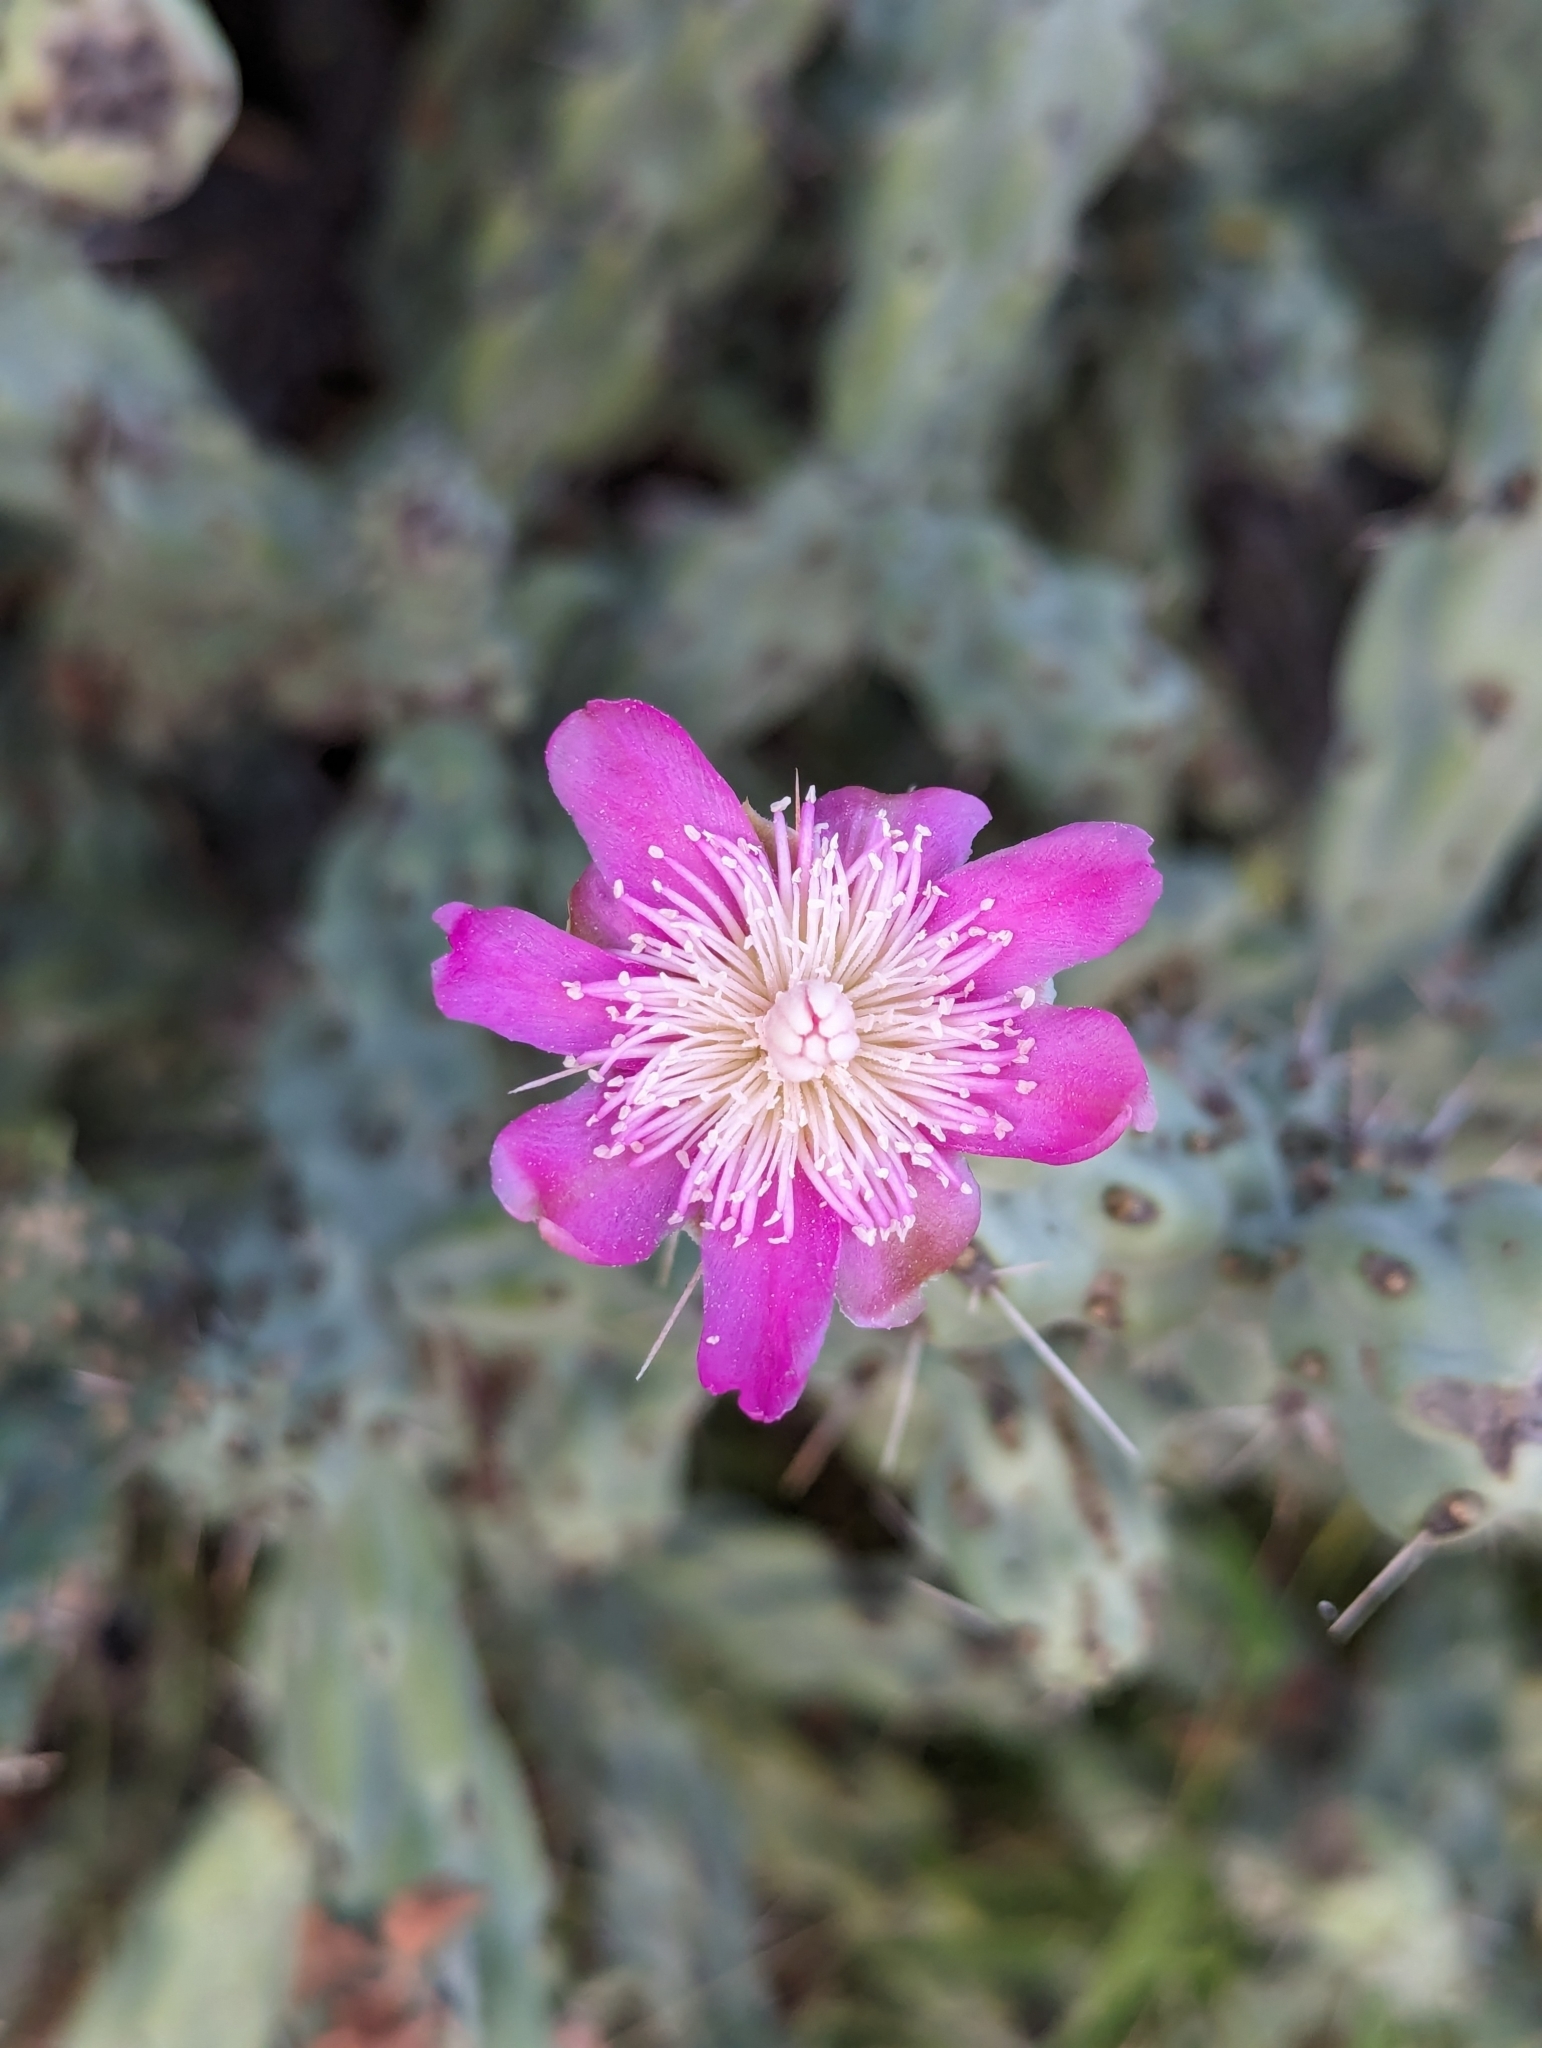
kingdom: Plantae
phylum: Tracheophyta
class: Magnoliopsida
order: Caryophyllales
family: Cactaceae
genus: Cylindropuntia
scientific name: Cylindropuntia cholla
